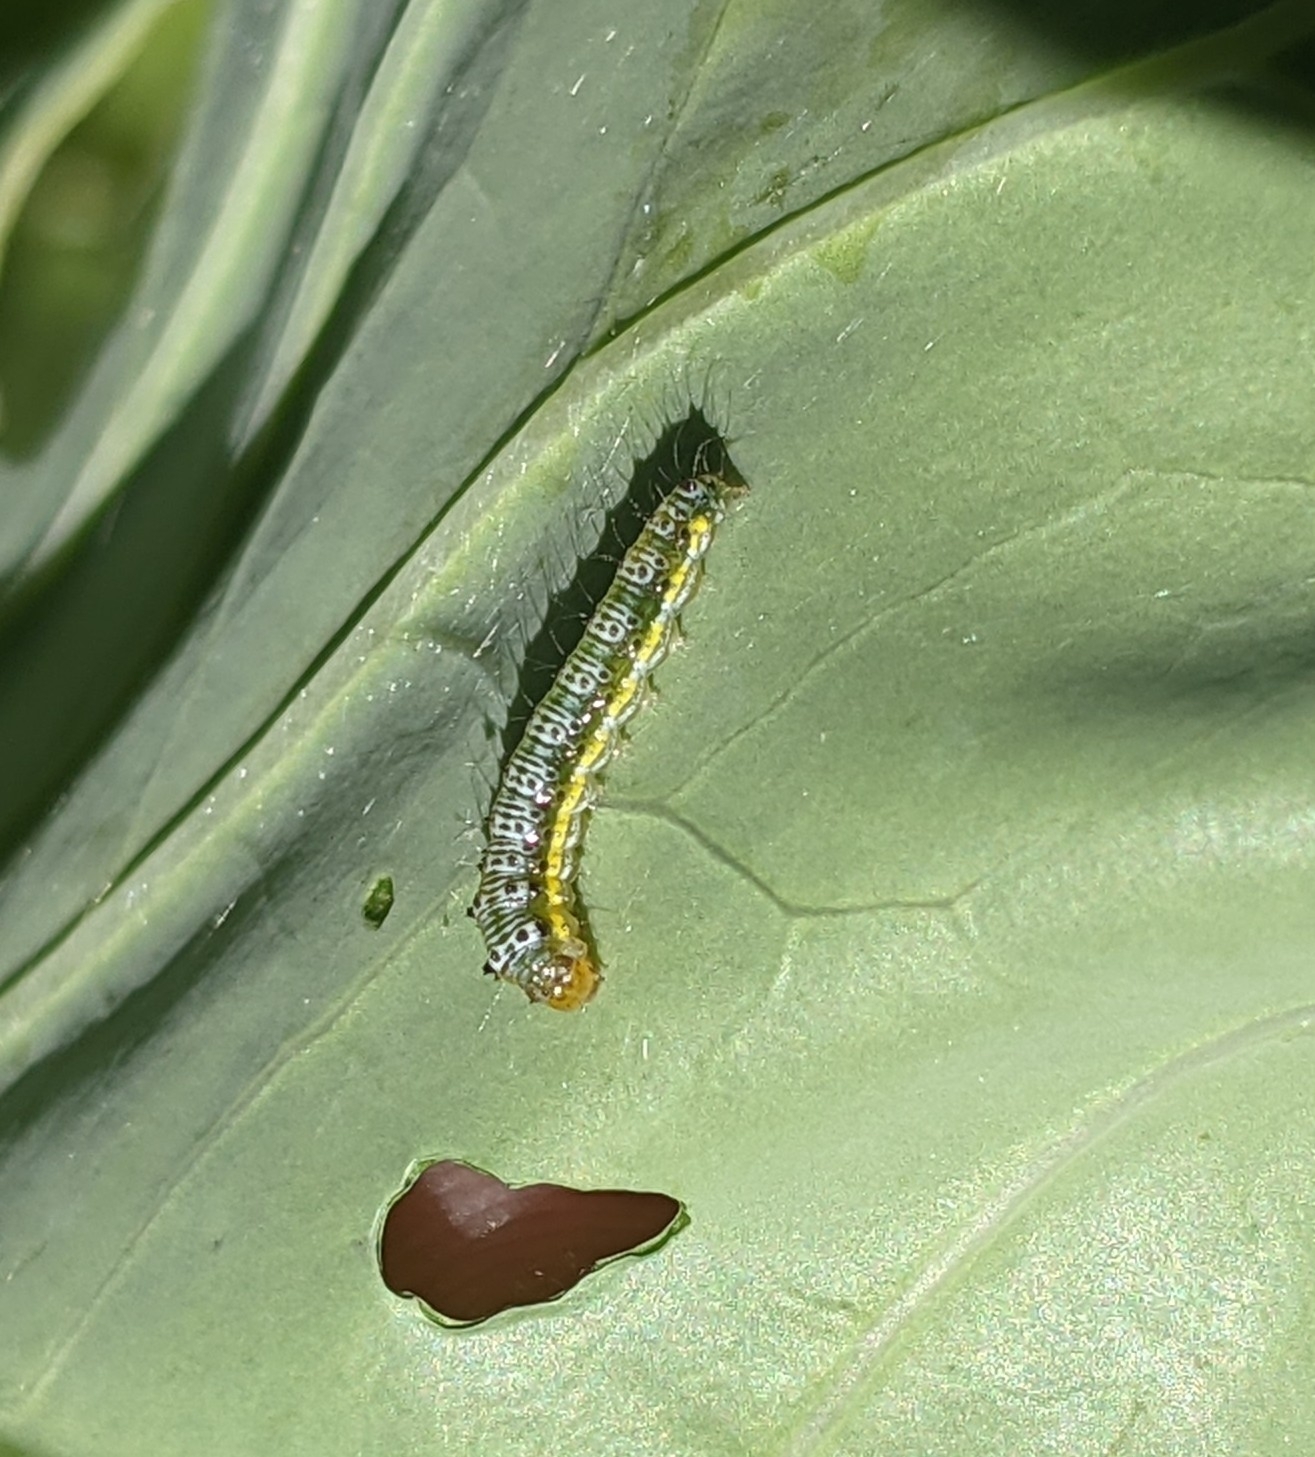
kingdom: Animalia
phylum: Arthropoda
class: Insecta
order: Lepidoptera
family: Crambidae
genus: Evergestis
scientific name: Evergestis rimosalis
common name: Cross-striped cabbageworm moth
